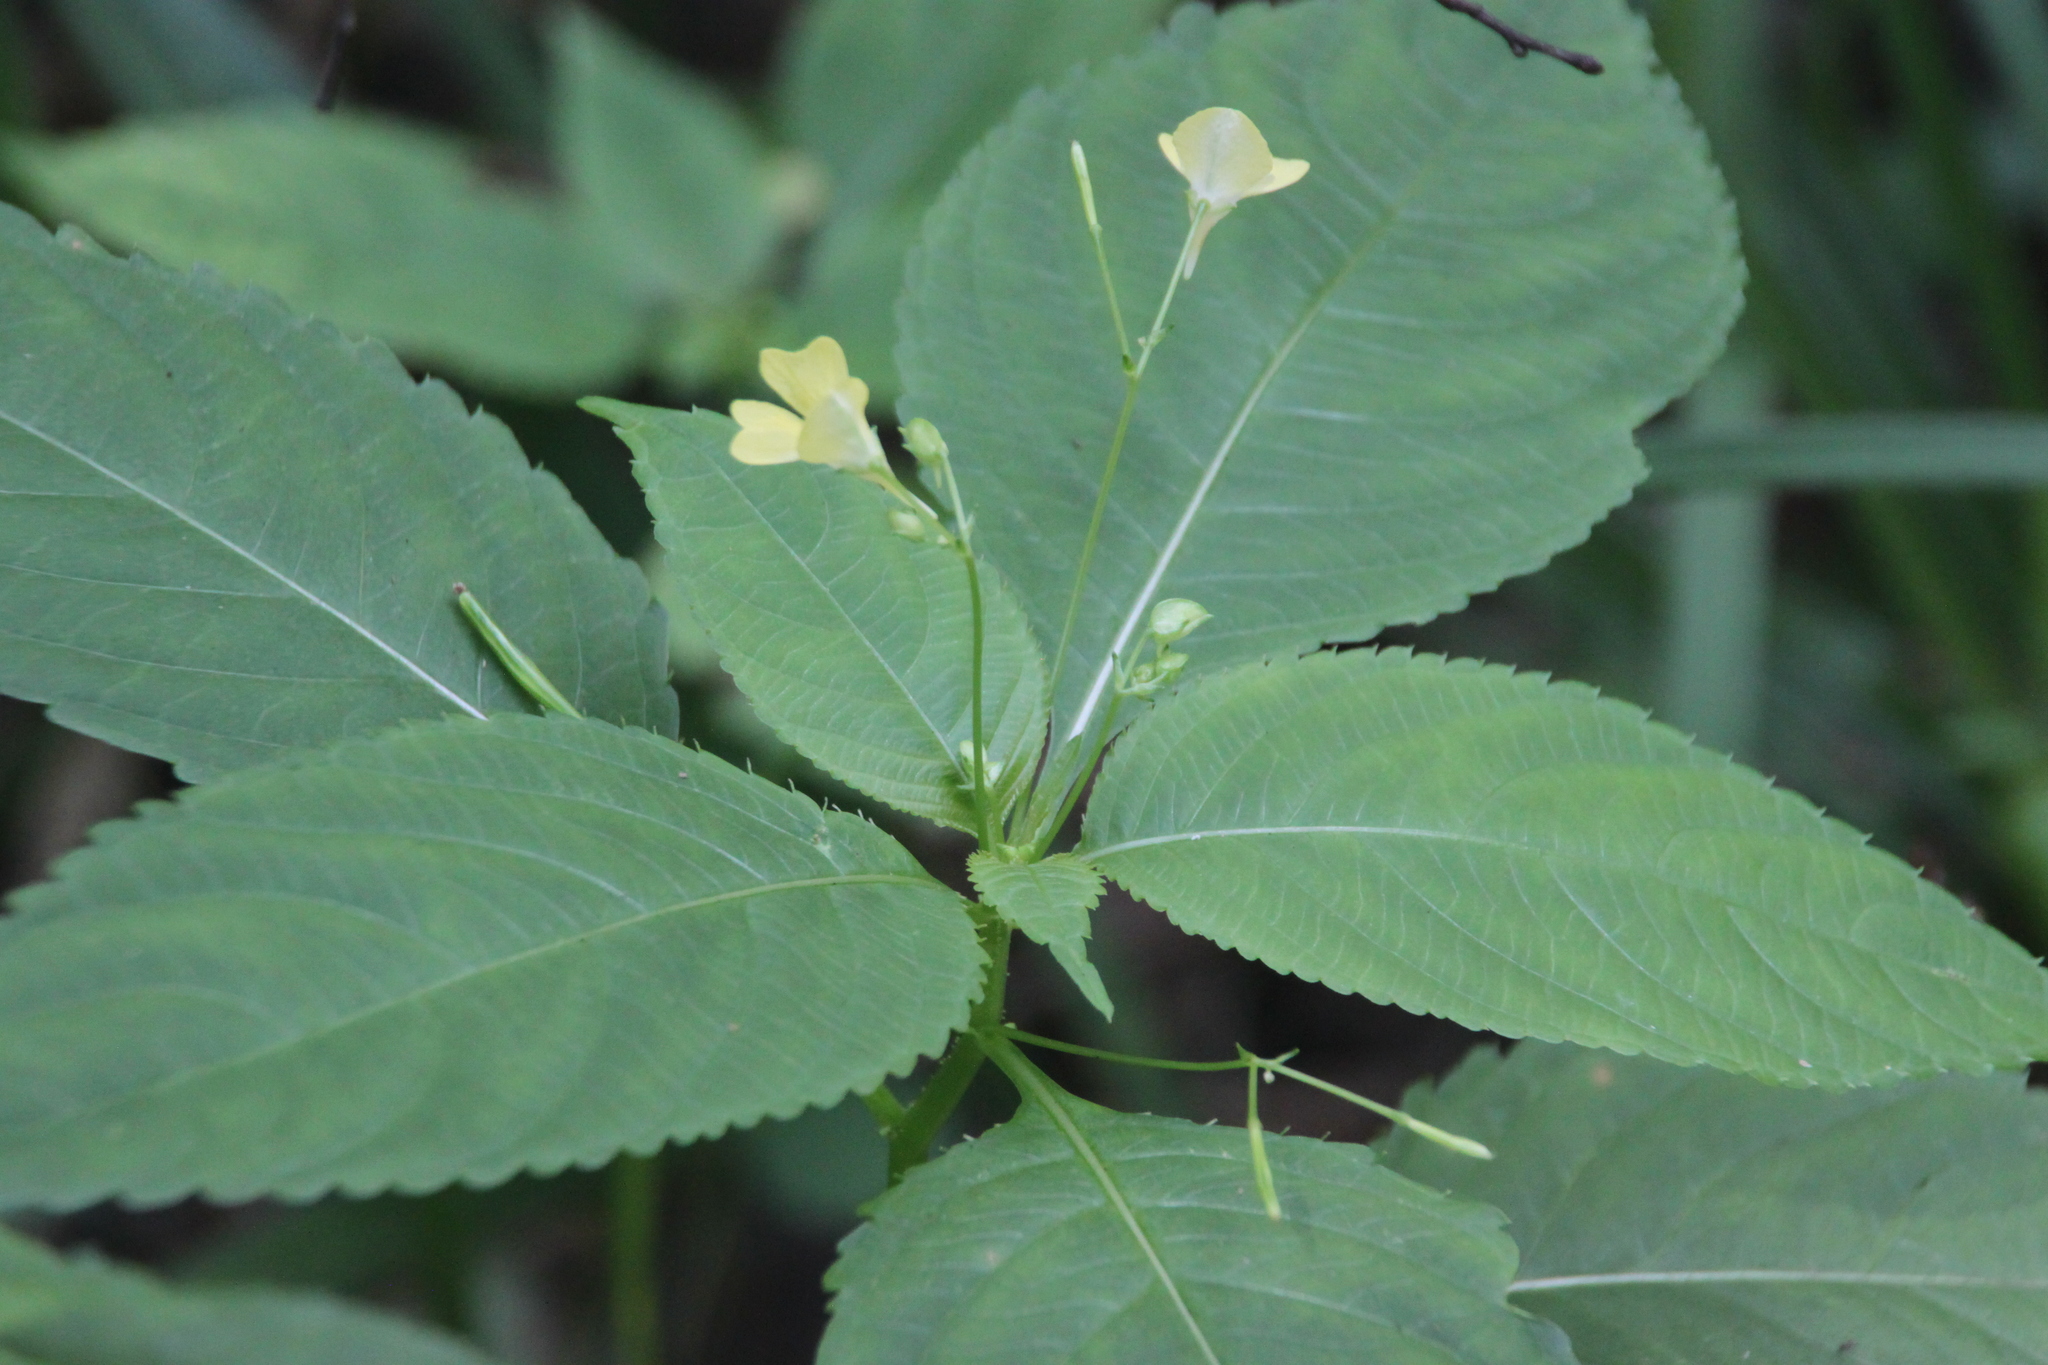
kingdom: Plantae
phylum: Tracheophyta
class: Magnoliopsida
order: Ericales
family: Balsaminaceae
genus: Impatiens
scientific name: Impatiens parviflora
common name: Small balsam
